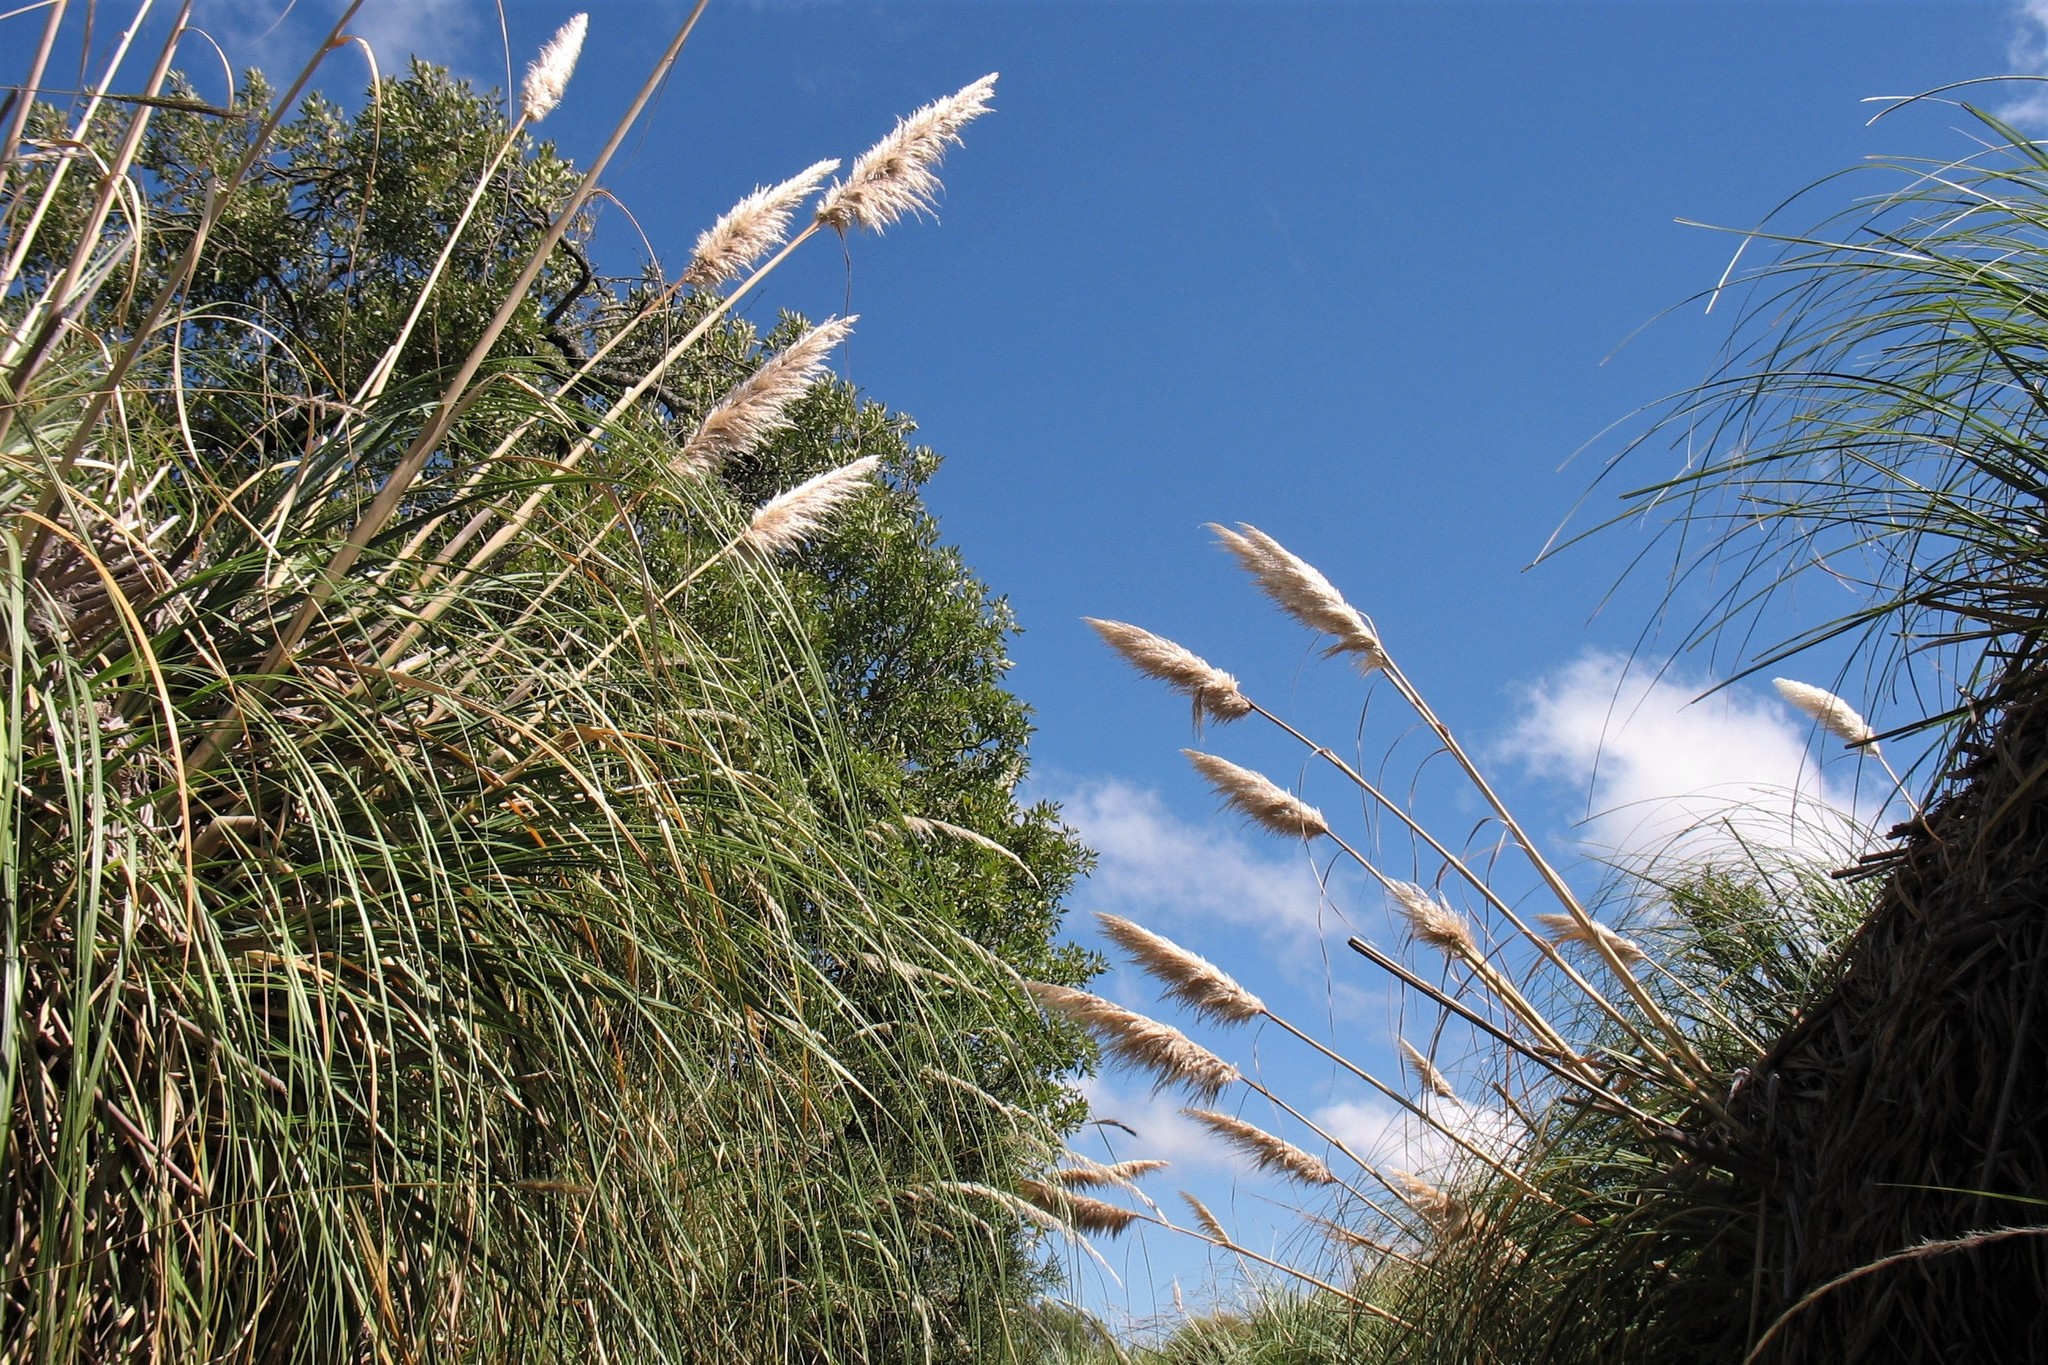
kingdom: Plantae
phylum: Tracheophyta
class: Liliopsida
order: Poales
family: Poaceae
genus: Cortaderia
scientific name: Cortaderia selloana
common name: Uruguayan pampas grass
